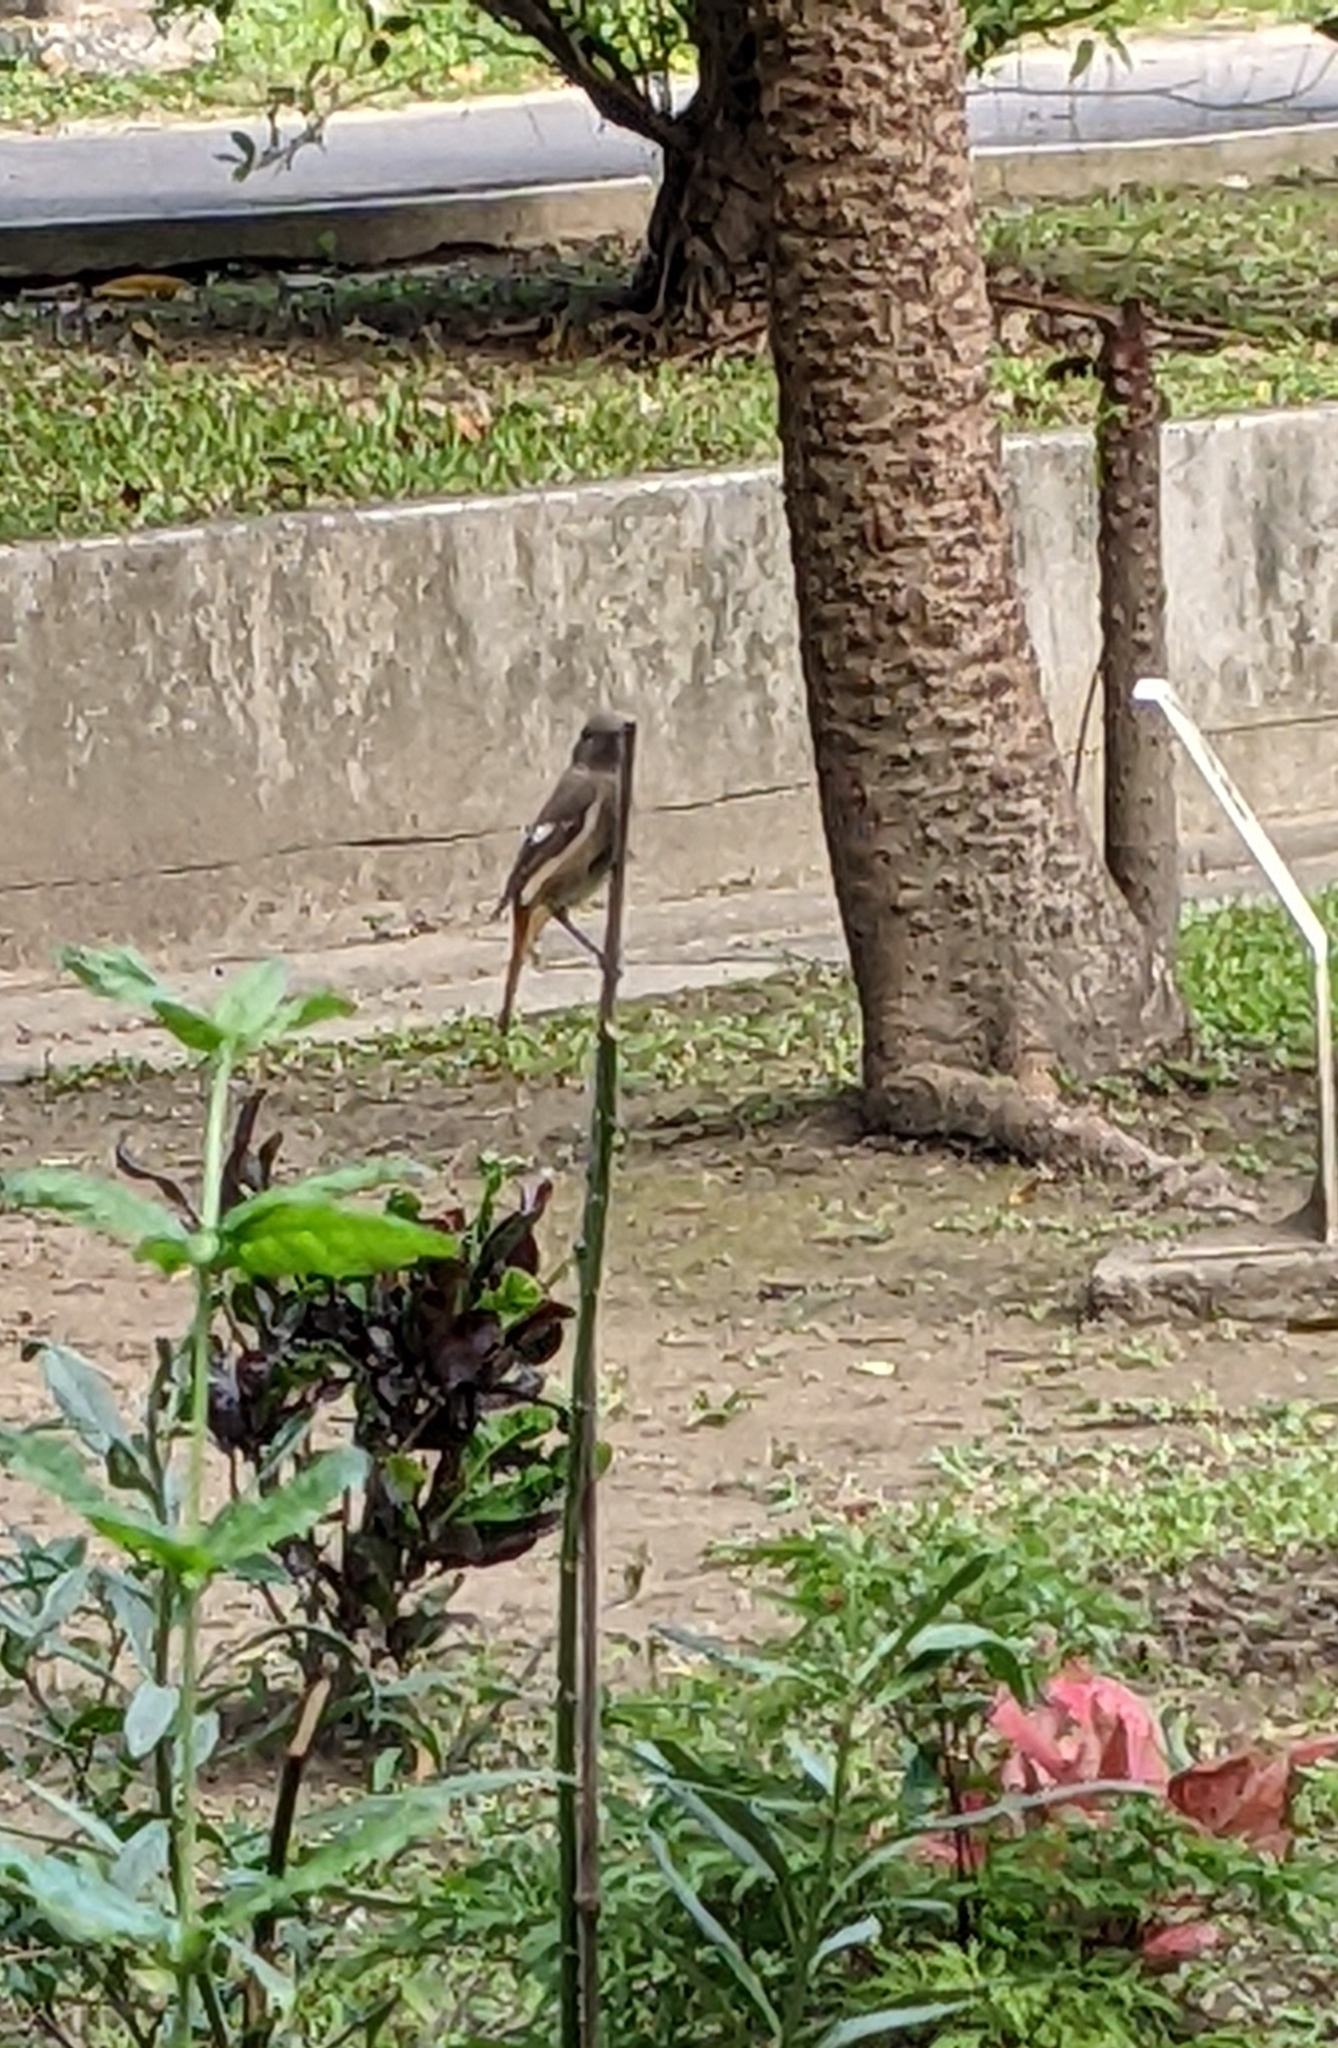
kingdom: Animalia
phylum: Chordata
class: Aves
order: Passeriformes
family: Muscicapidae
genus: Phoenicurus
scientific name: Phoenicurus auroreus
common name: Daurian redstart
